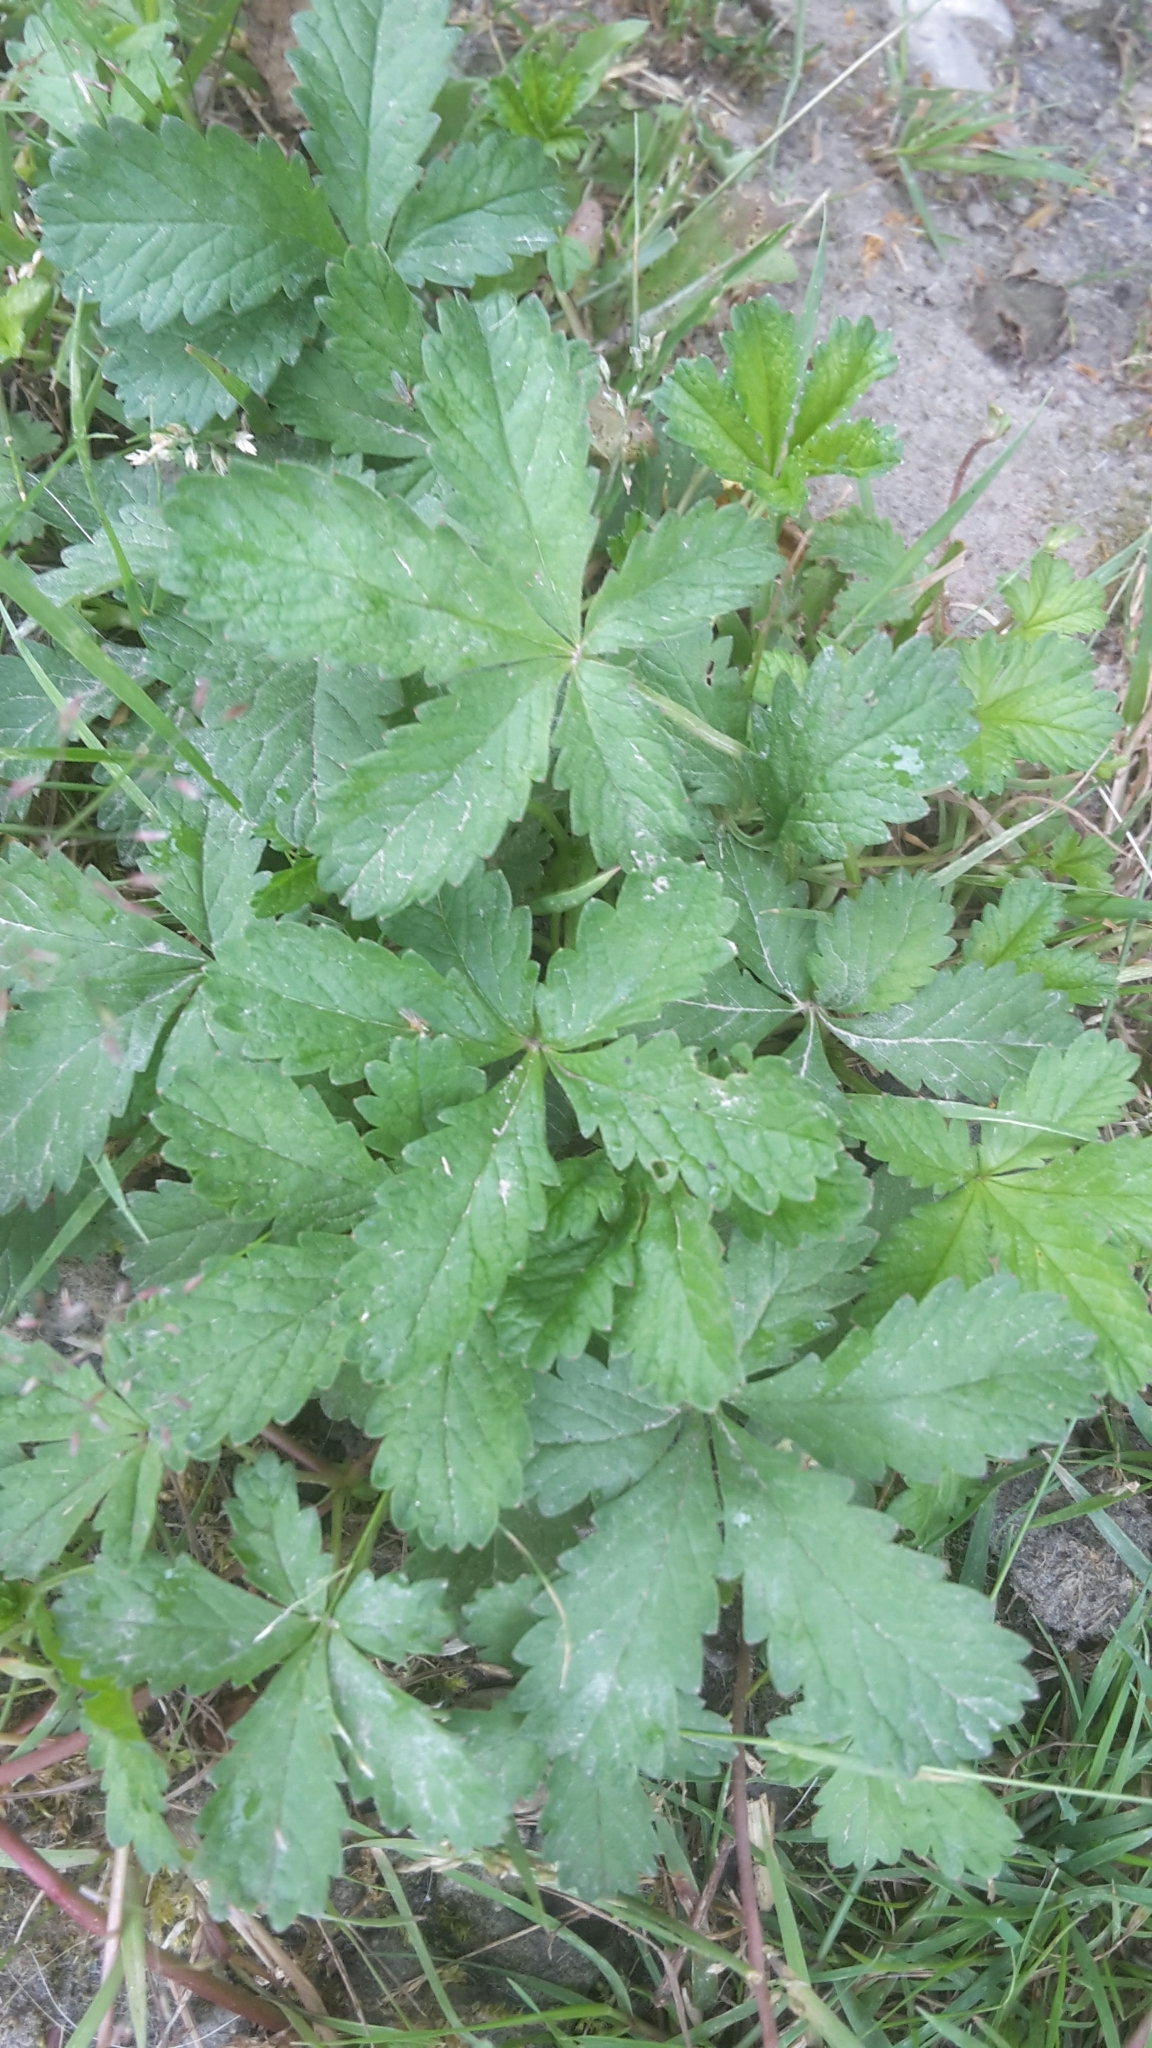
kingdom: Plantae
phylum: Tracheophyta
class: Magnoliopsida
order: Rosales
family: Rosaceae
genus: Potentilla
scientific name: Potentilla reptans
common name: Creeping cinquefoil
